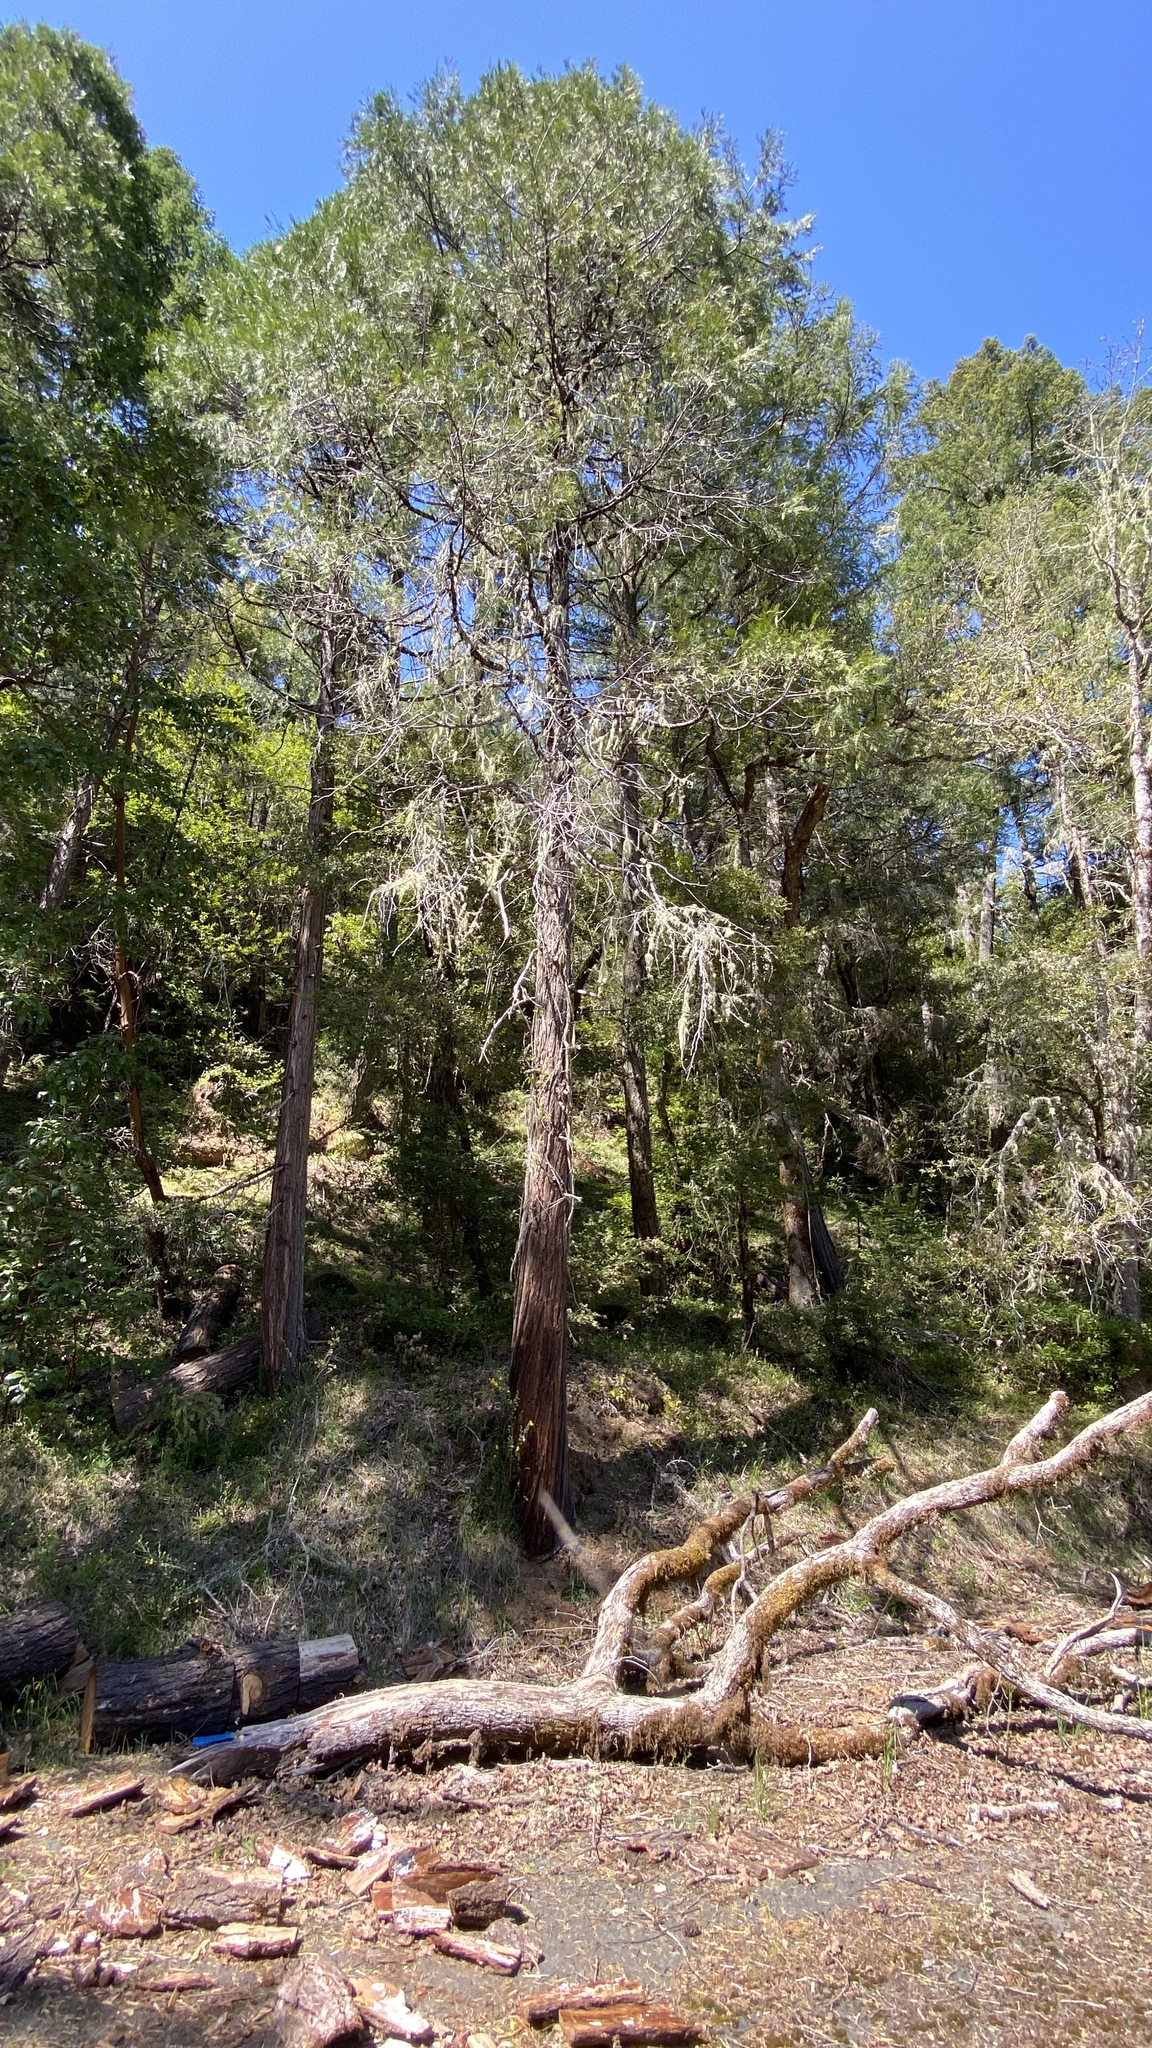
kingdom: Plantae
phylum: Tracheophyta
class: Pinopsida
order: Pinales
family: Cupressaceae
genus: Calocedrus
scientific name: Calocedrus decurrens
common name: Californian incense-cedar
